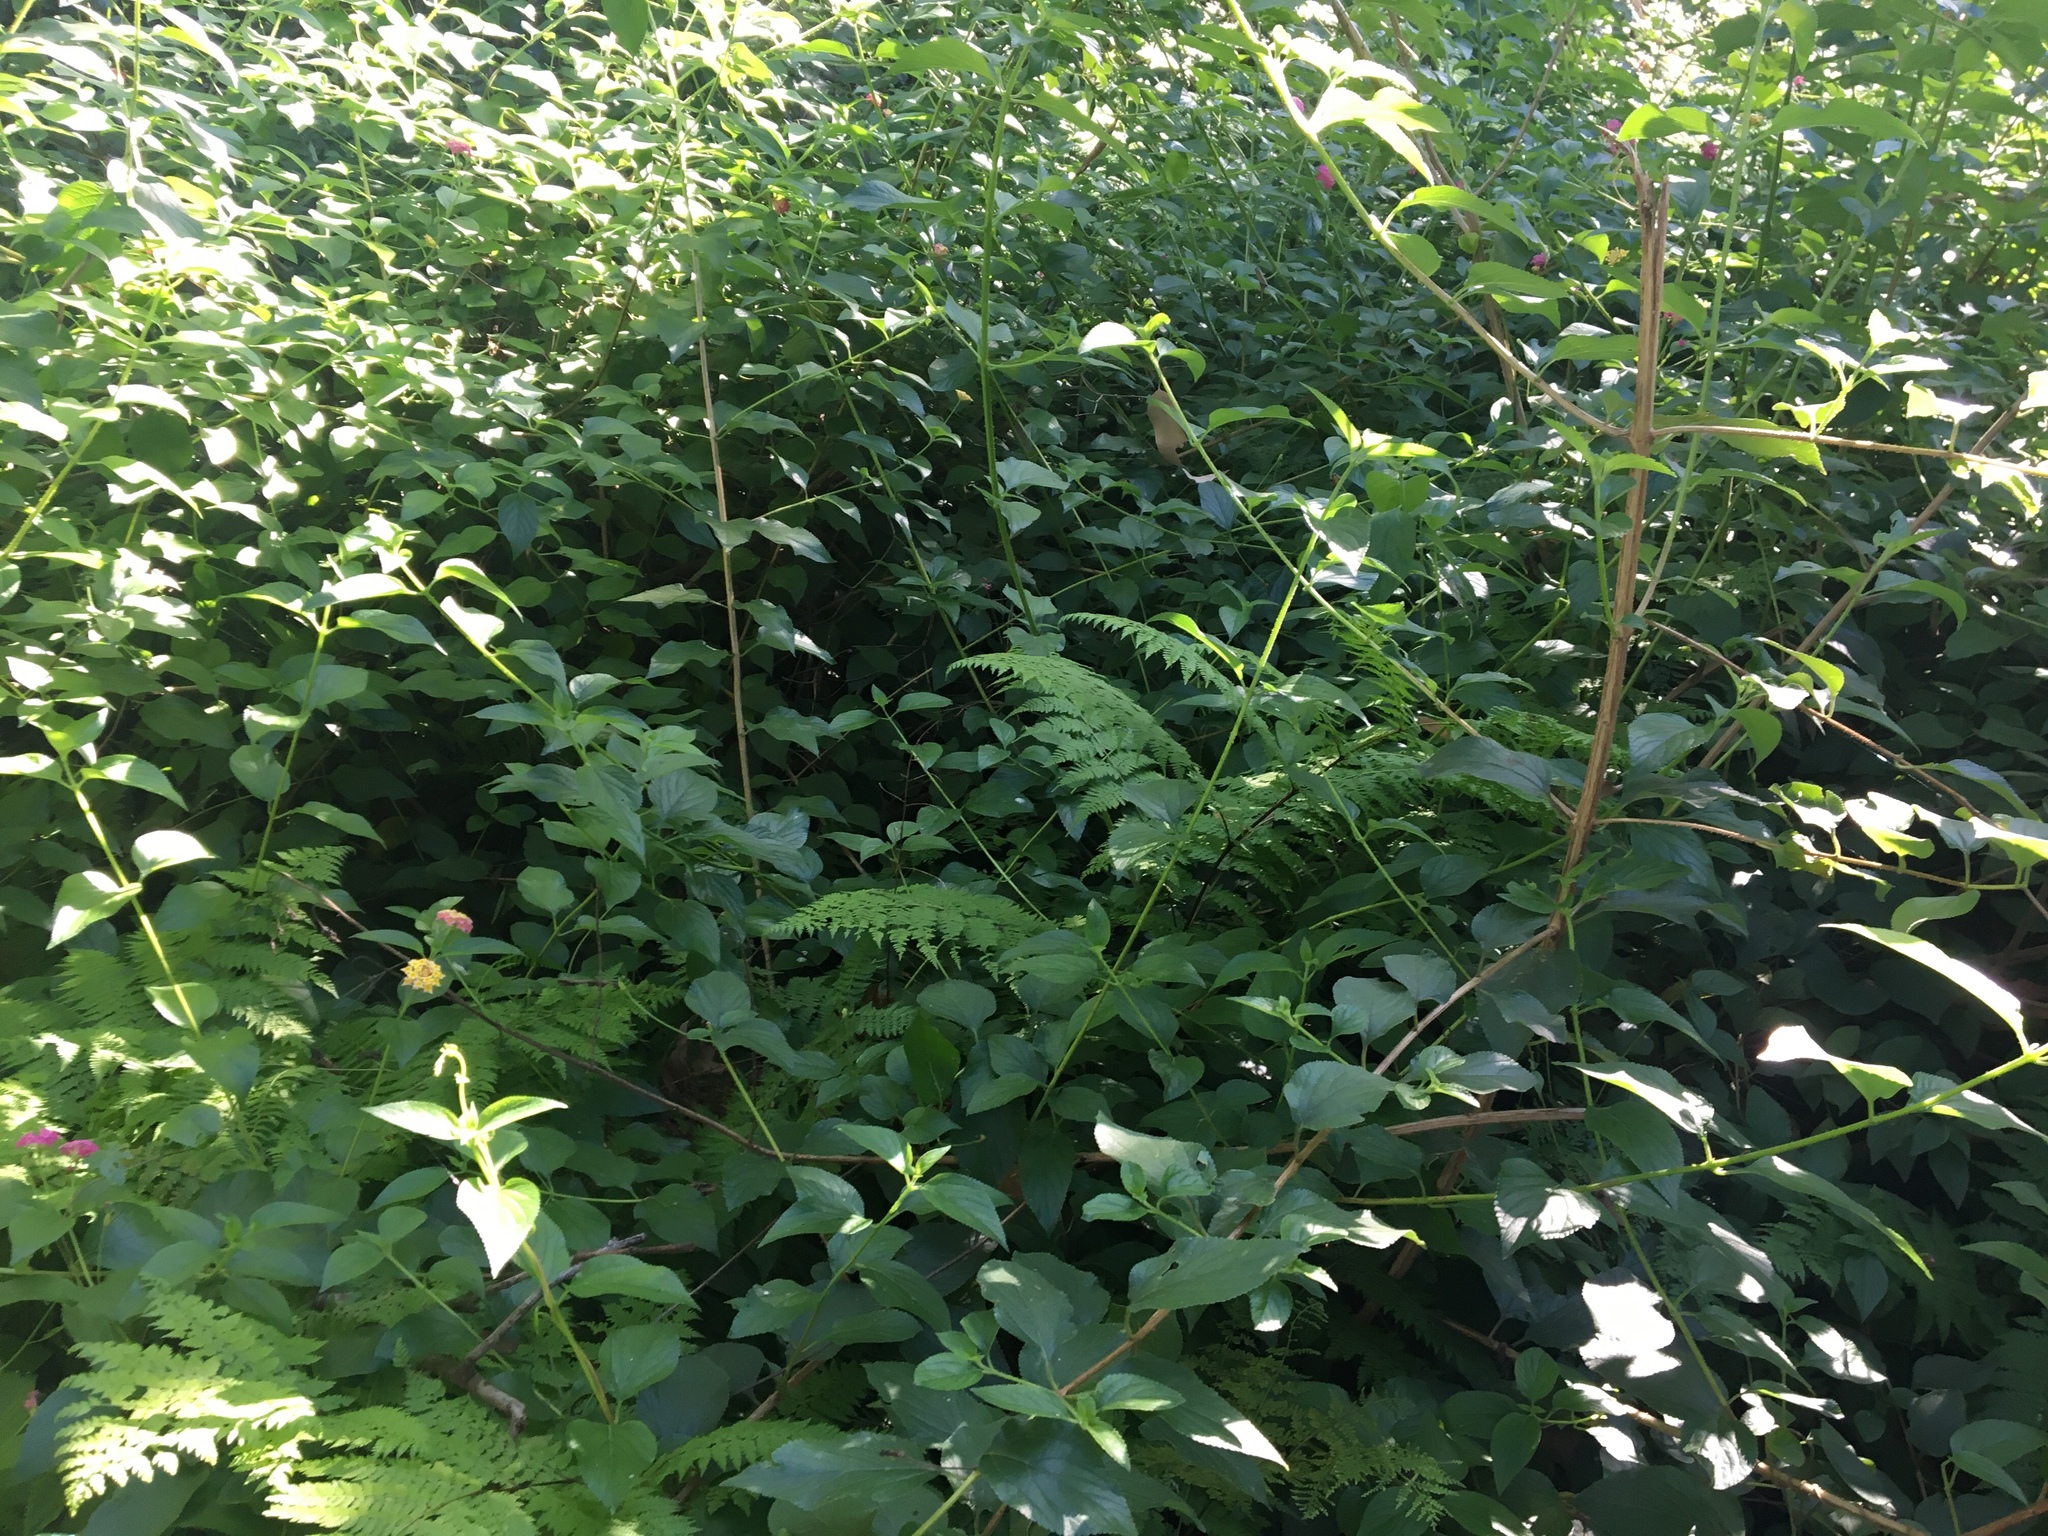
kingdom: Plantae
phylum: Tracheophyta
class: Magnoliopsida
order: Lamiales
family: Verbenaceae
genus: Lantana
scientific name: Lantana camara
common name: Lantana
